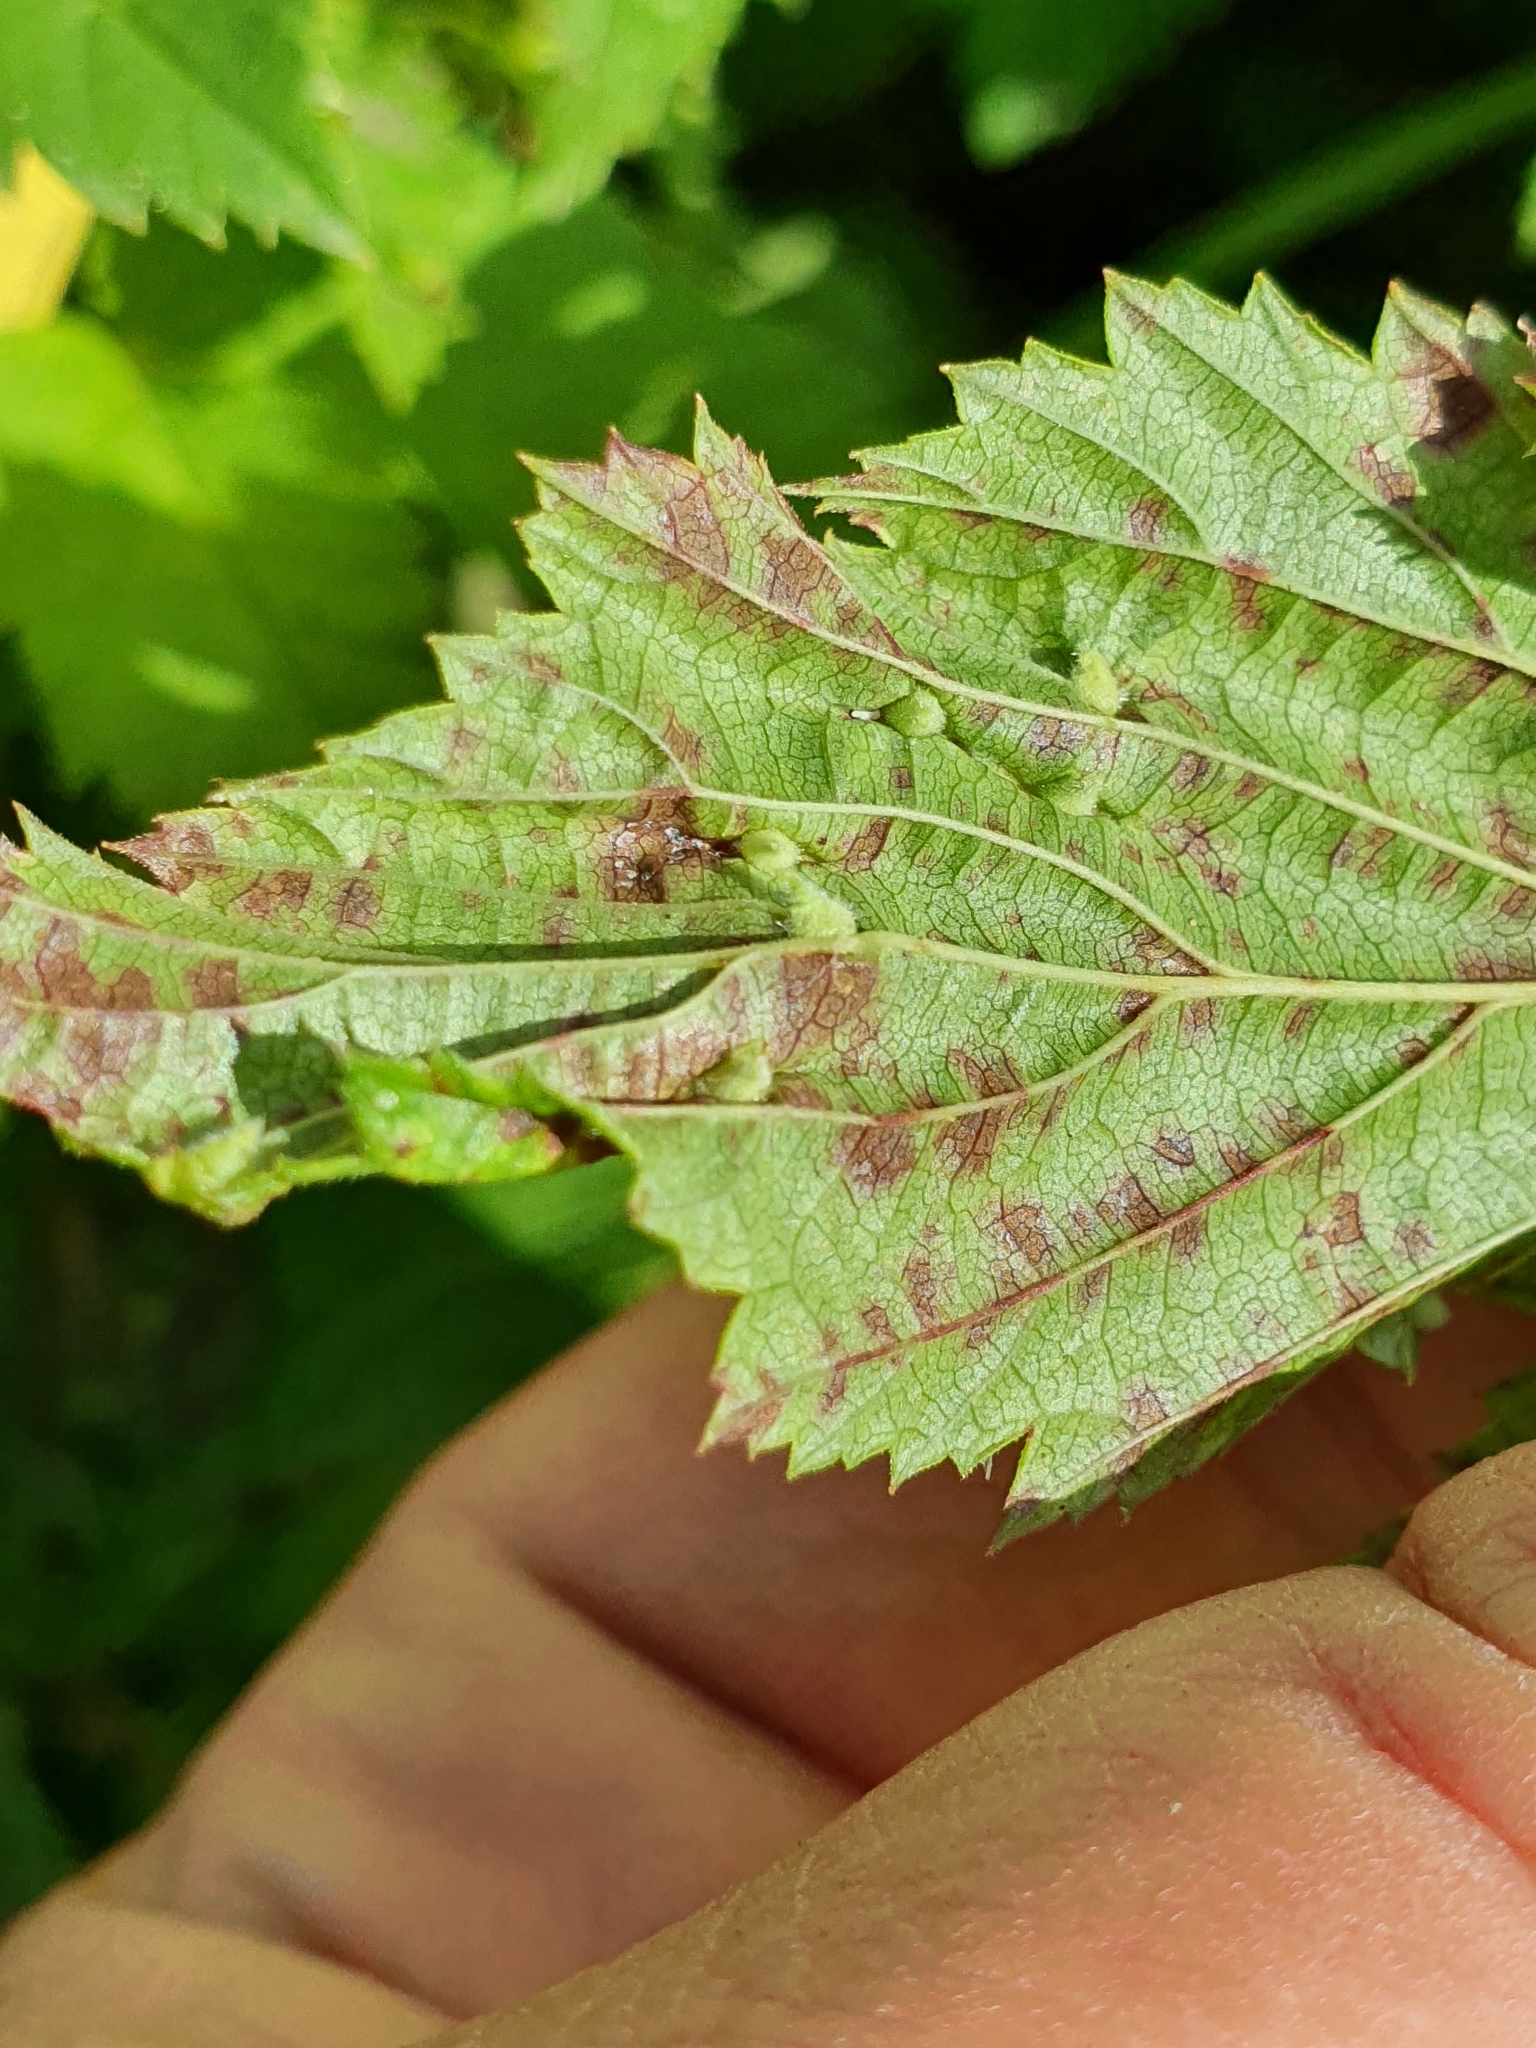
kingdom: Animalia
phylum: Arthropoda
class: Insecta
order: Diptera
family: Cecidomyiidae
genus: Dasineura
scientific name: Dasineura ulmaria
